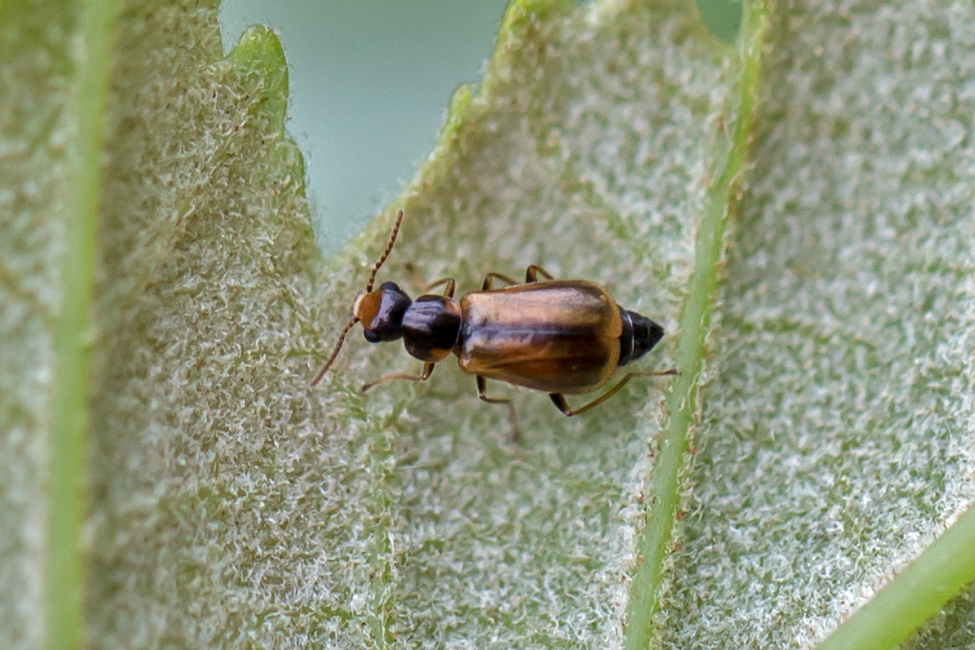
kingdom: Animalia
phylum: Arthropoda
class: Insecta
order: Coleoptera
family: Malachiidae
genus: Attalus
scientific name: Attalus
